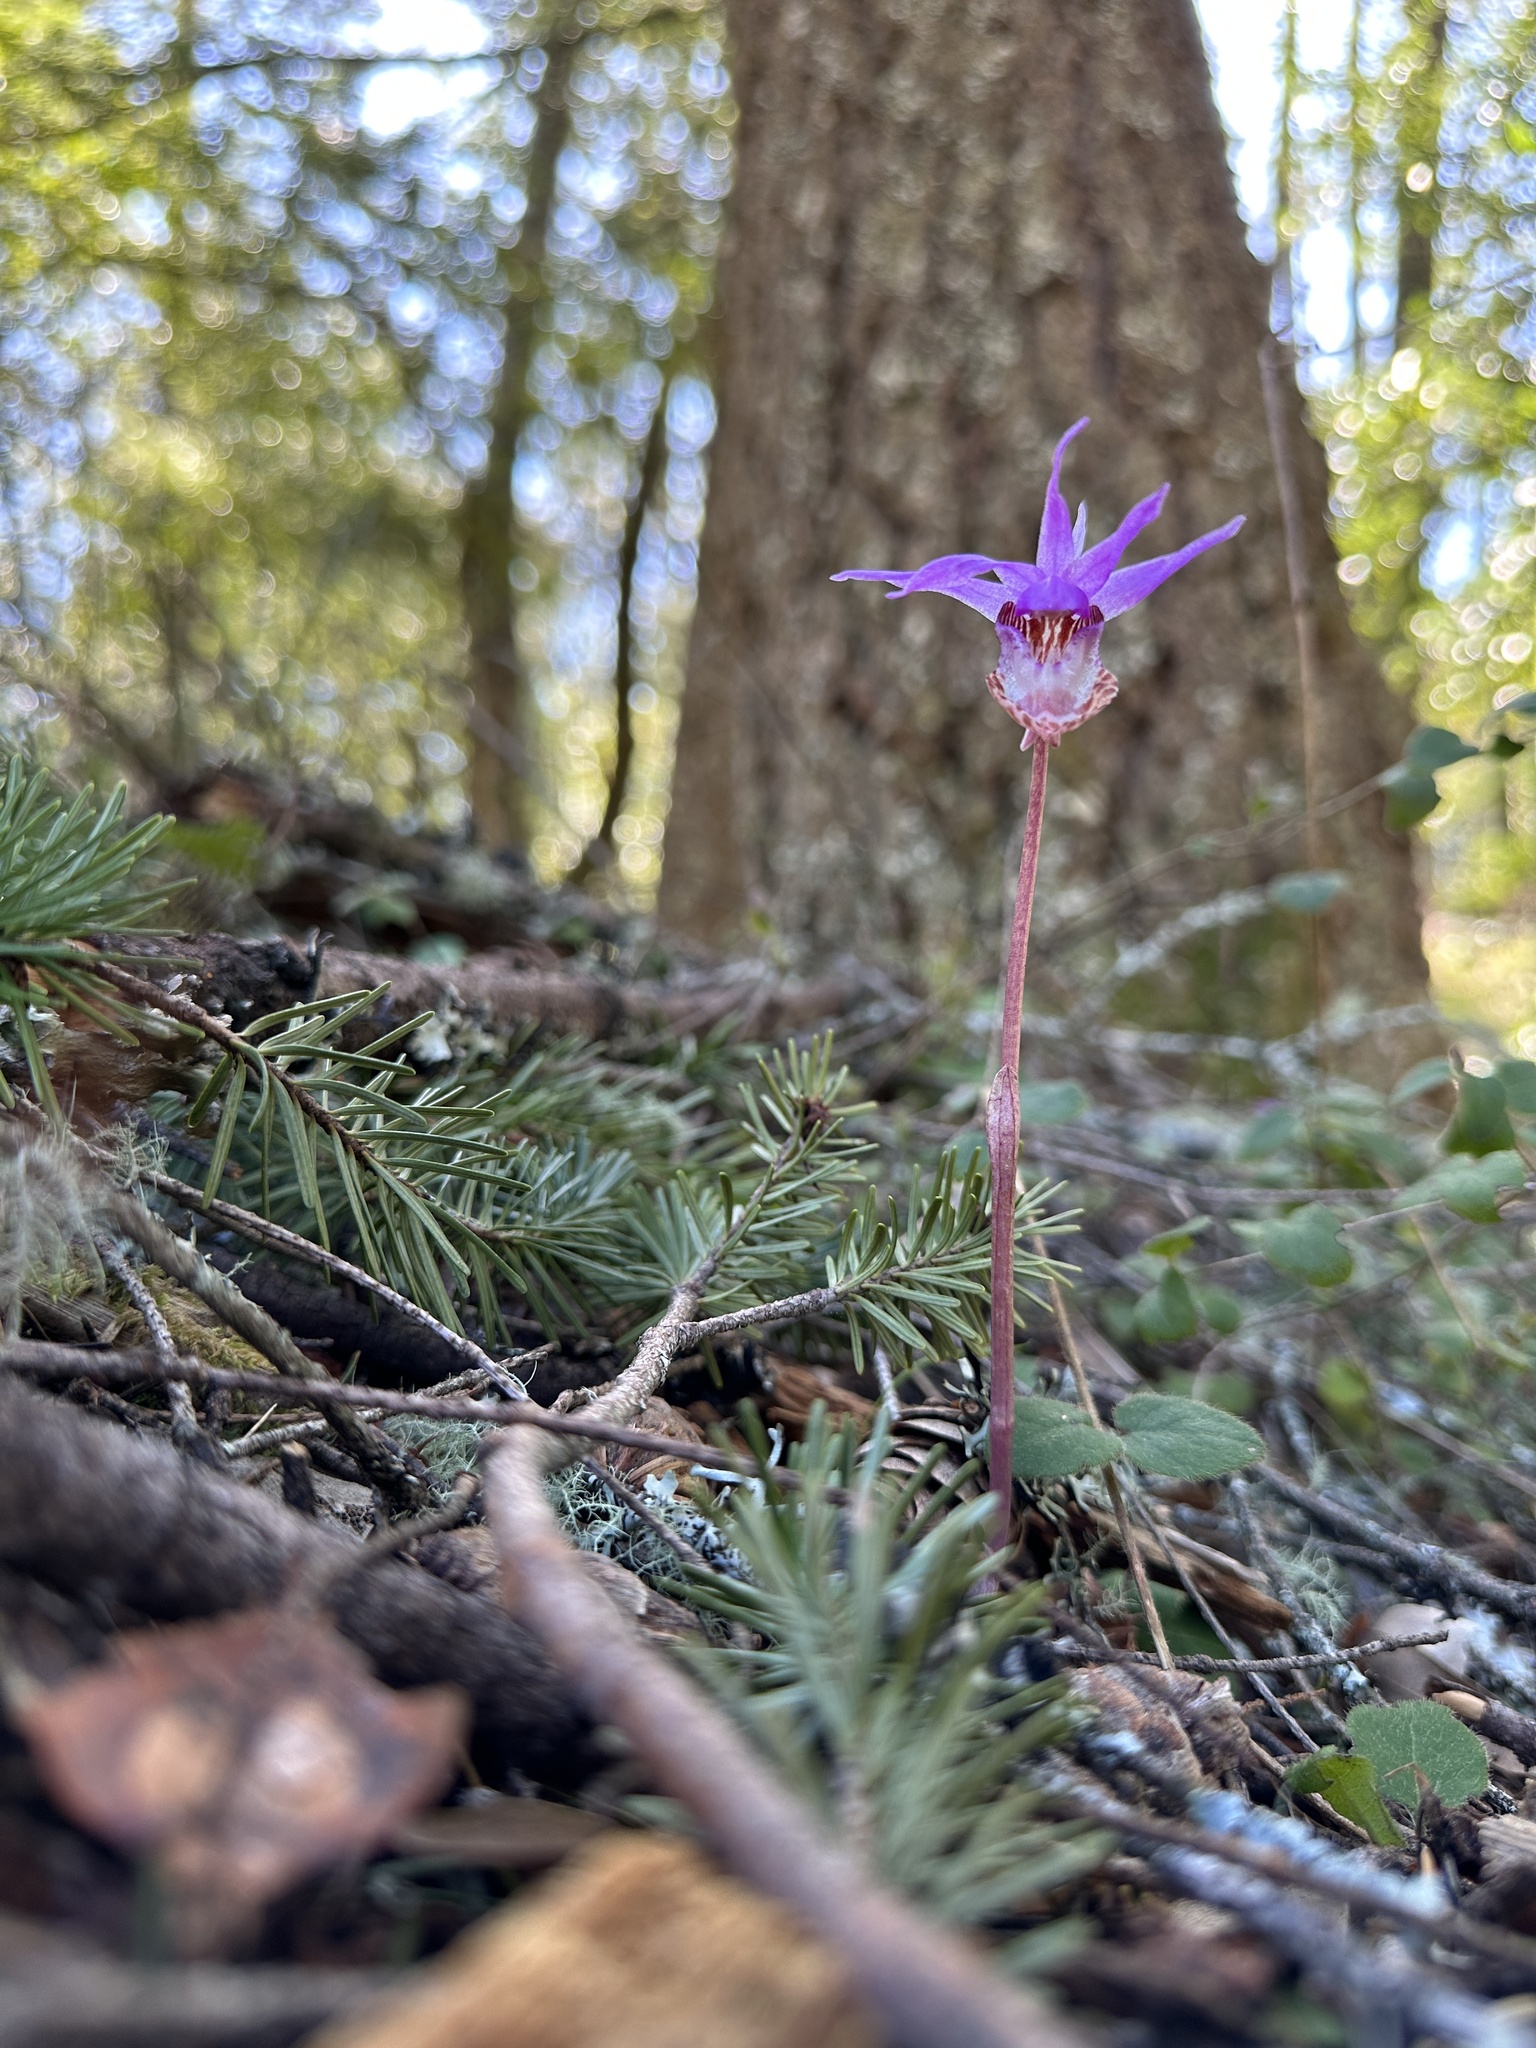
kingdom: Plantae
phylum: Tracheophyta
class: Liliopsida
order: Asparagales
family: Orchidaceae
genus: Calypso
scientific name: Calypso bulbosa
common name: Calypso
